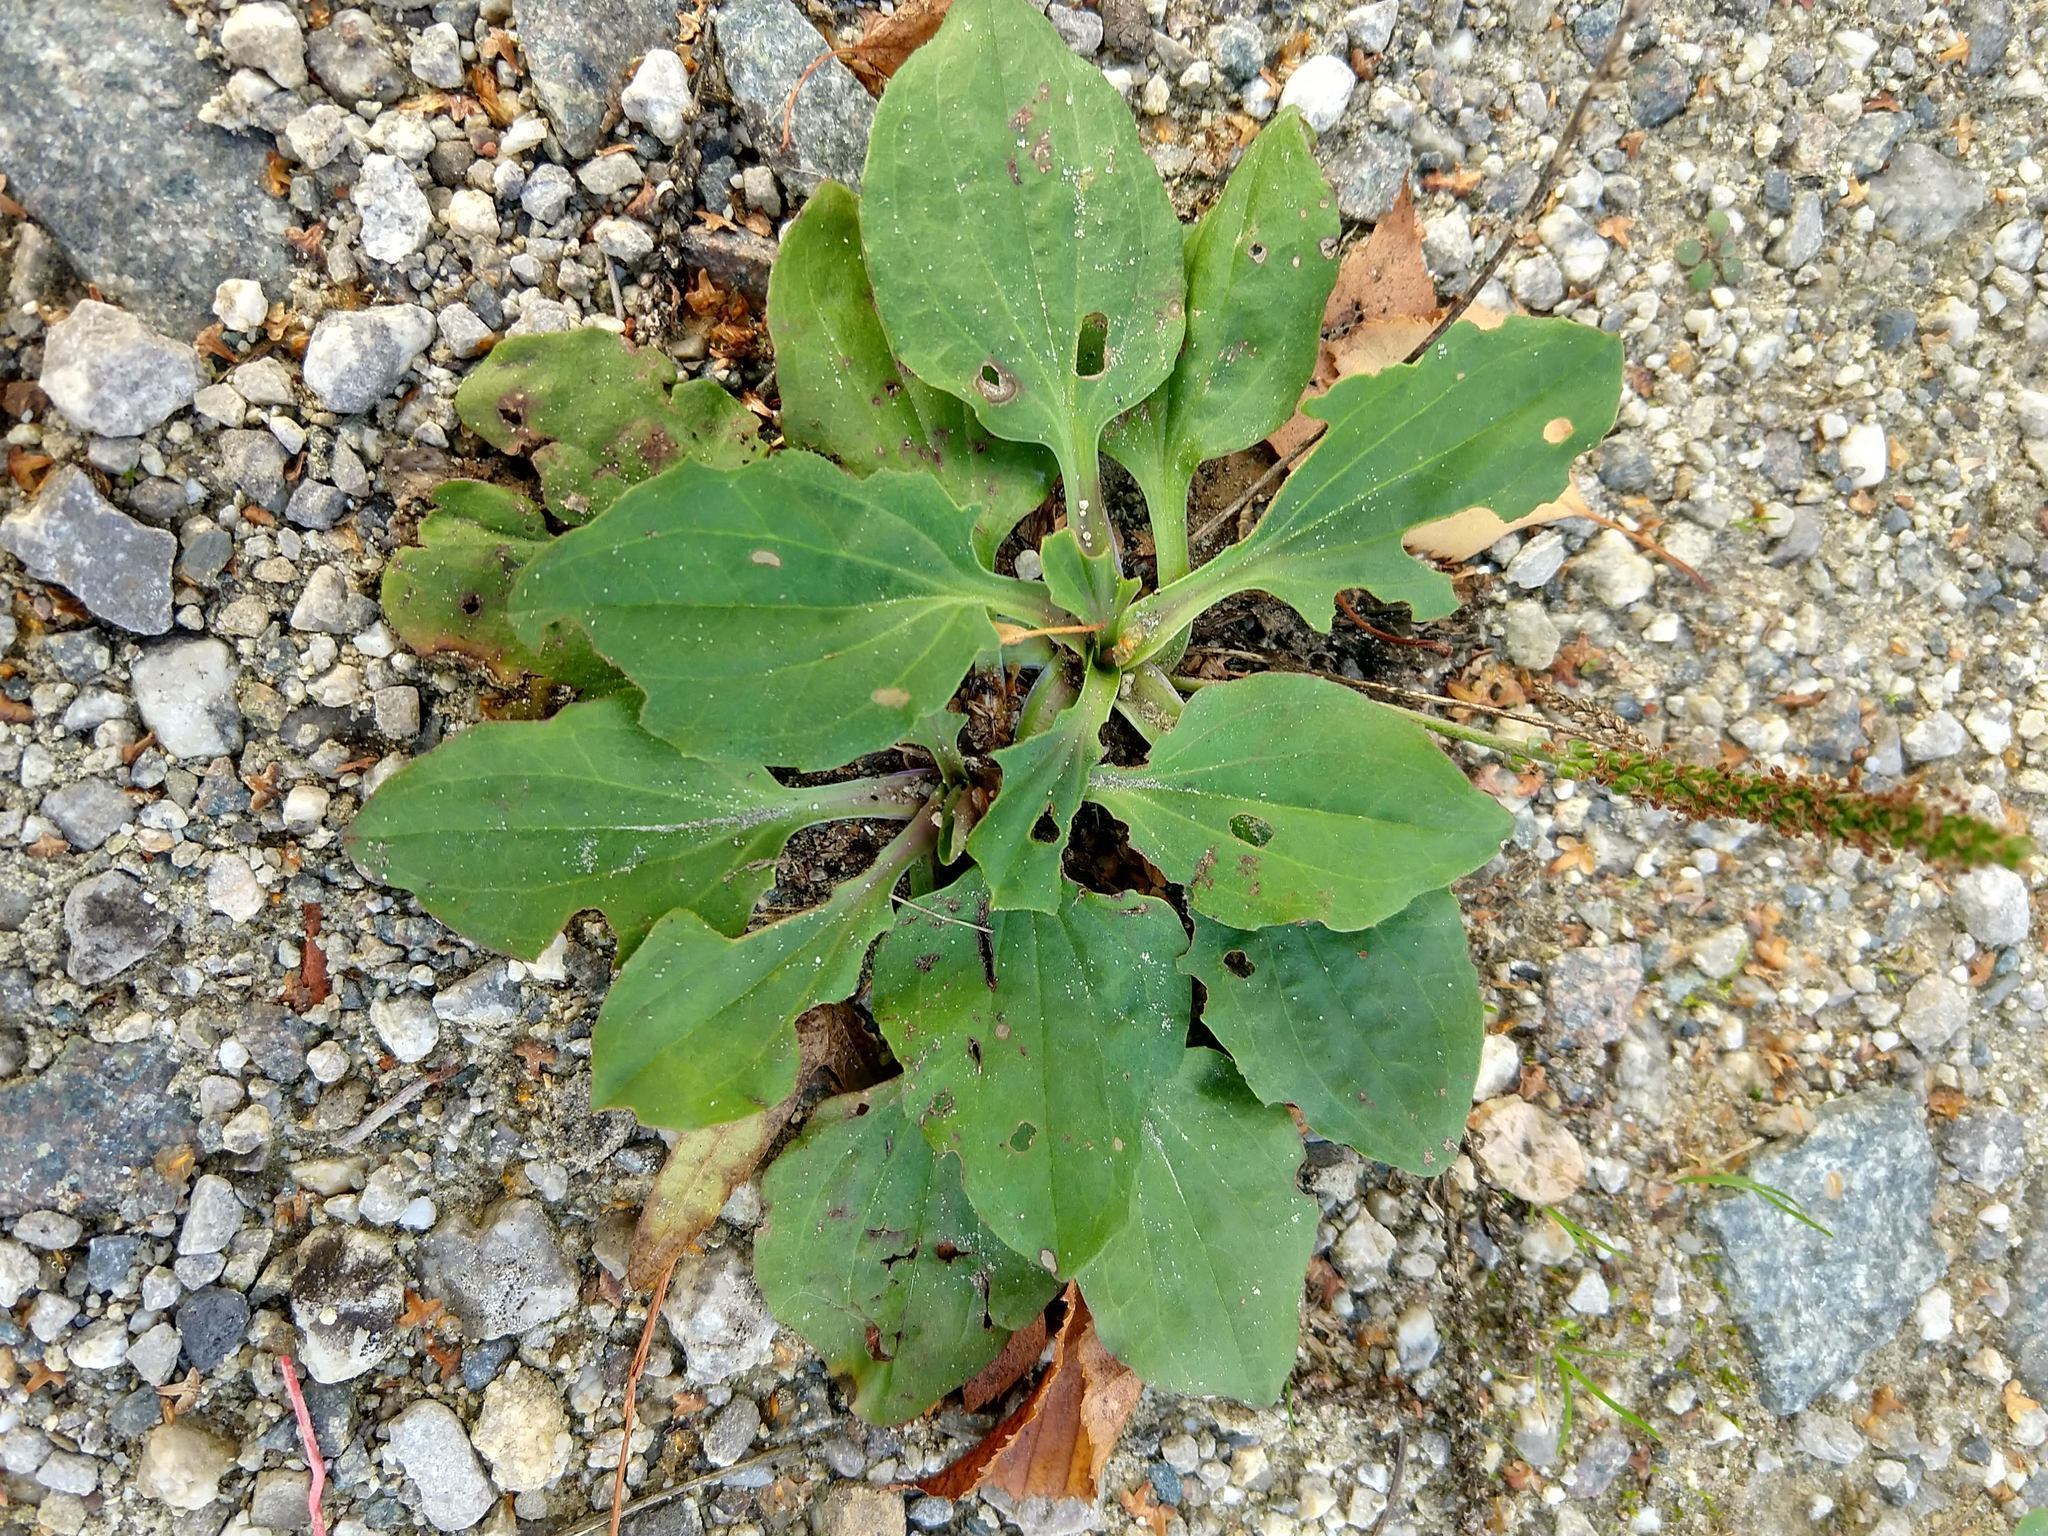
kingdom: Plantae
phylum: Tracheophyta
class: Magnoliopsida
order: Lamiales
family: Plantaginaceae
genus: Plantago
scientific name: Plantago major
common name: Common plantain
